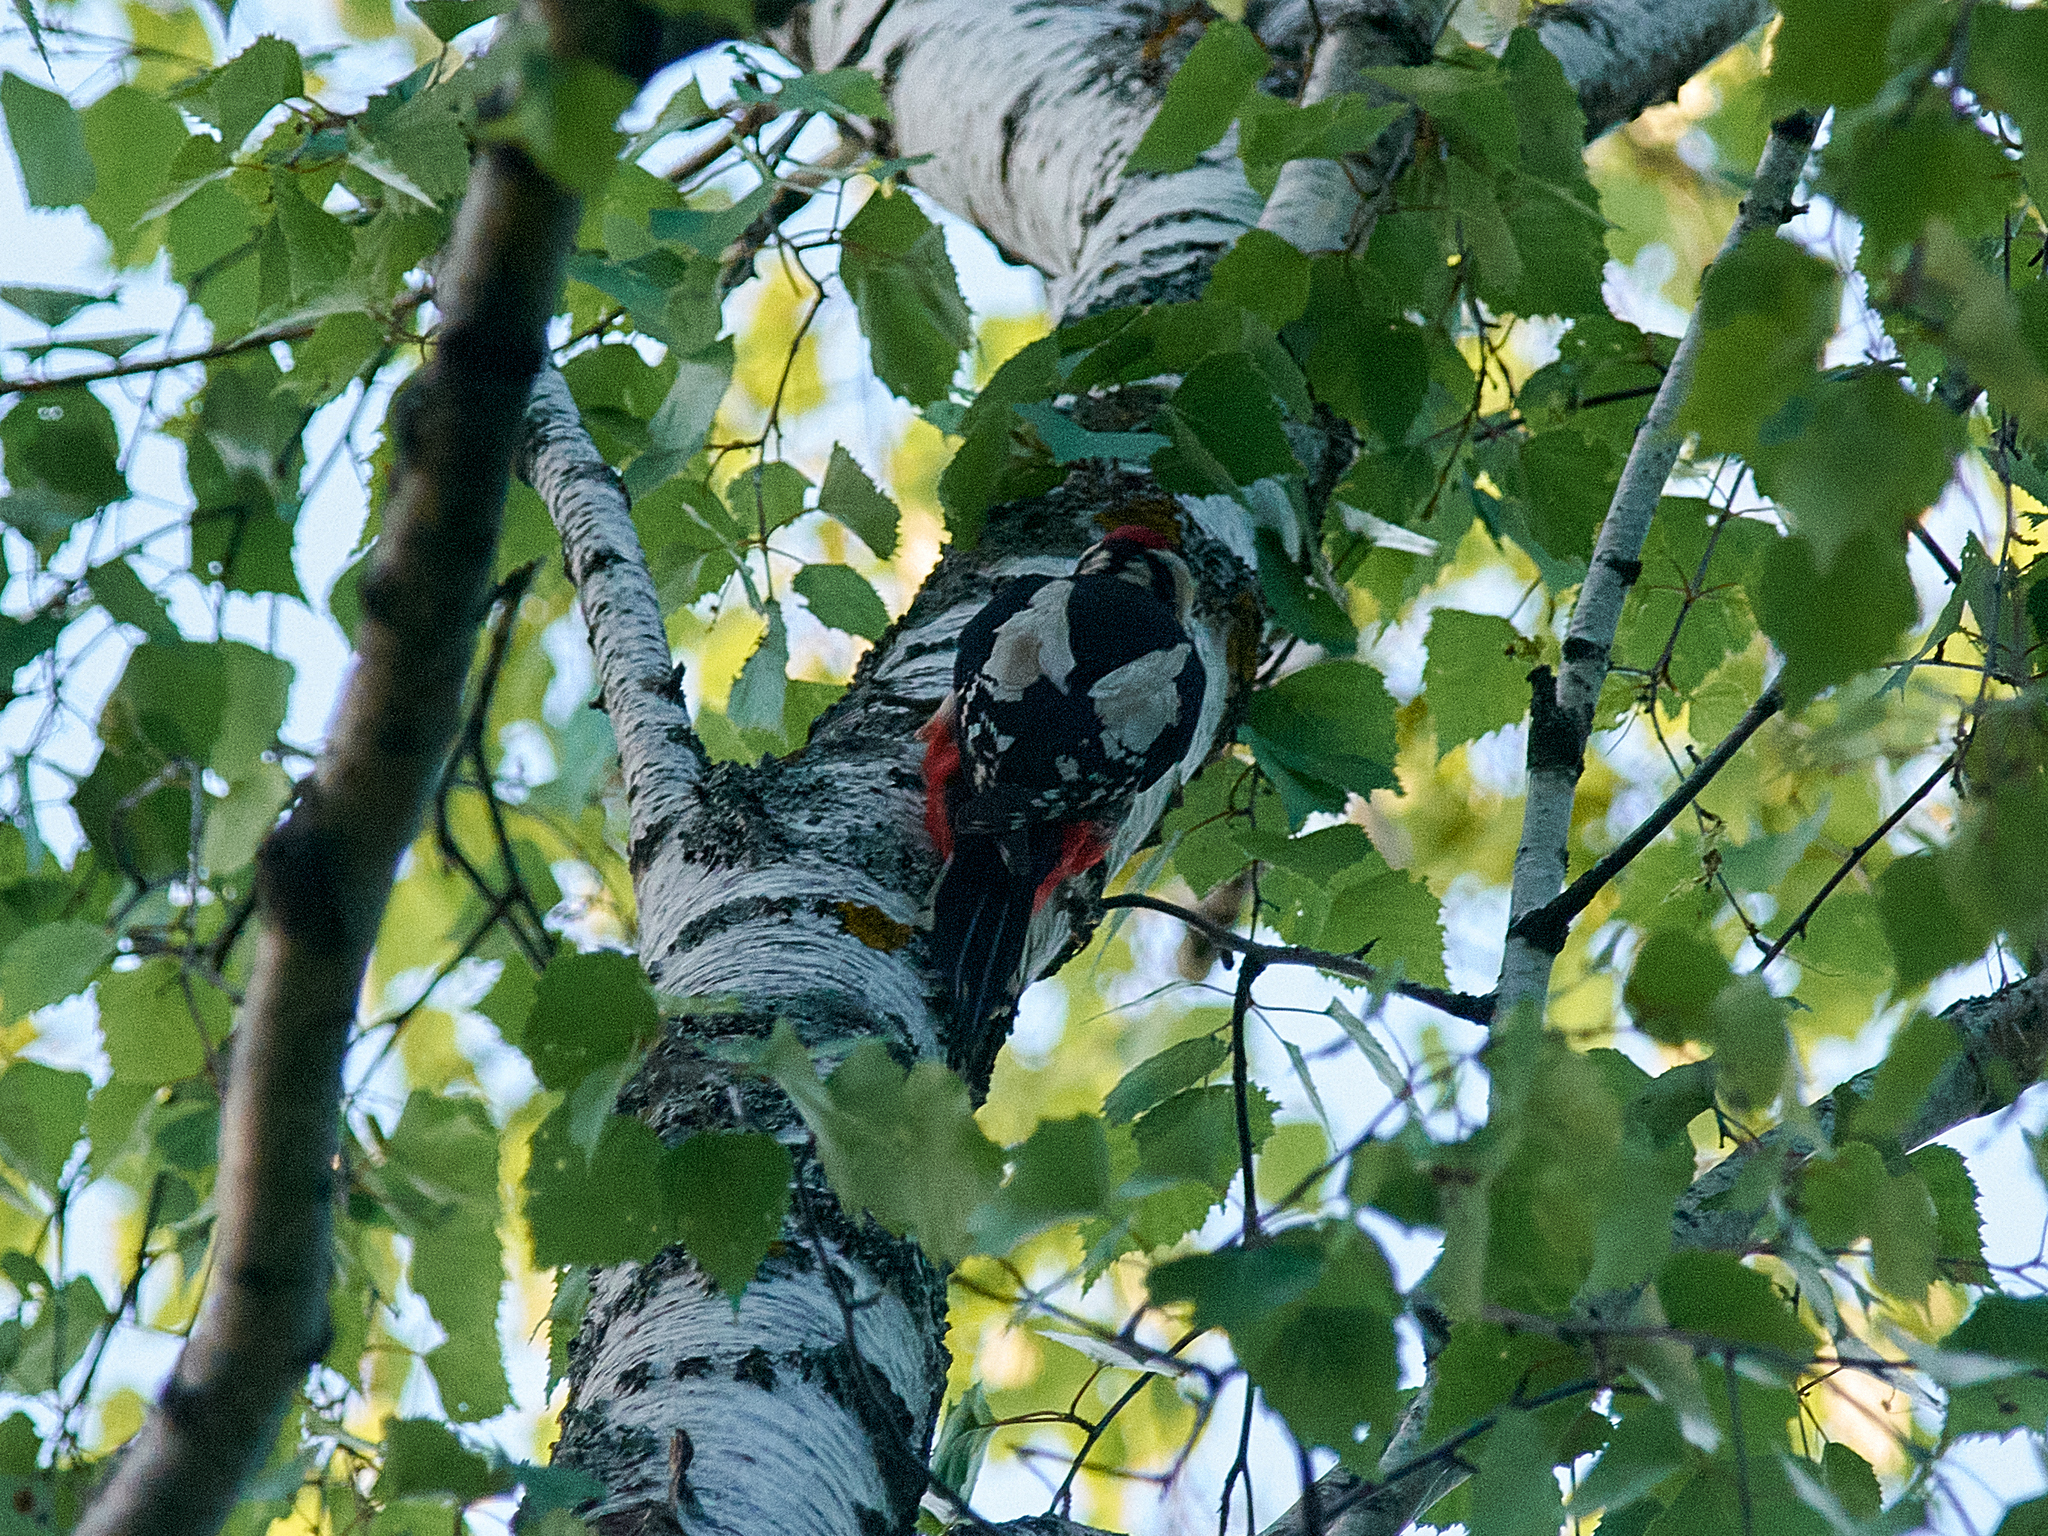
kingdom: Animalia
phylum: Chordata
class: Aves
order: Piciformes
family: Picidae
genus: Dendrocopos
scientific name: Dendrocopos major
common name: Great spotted woodpecker
